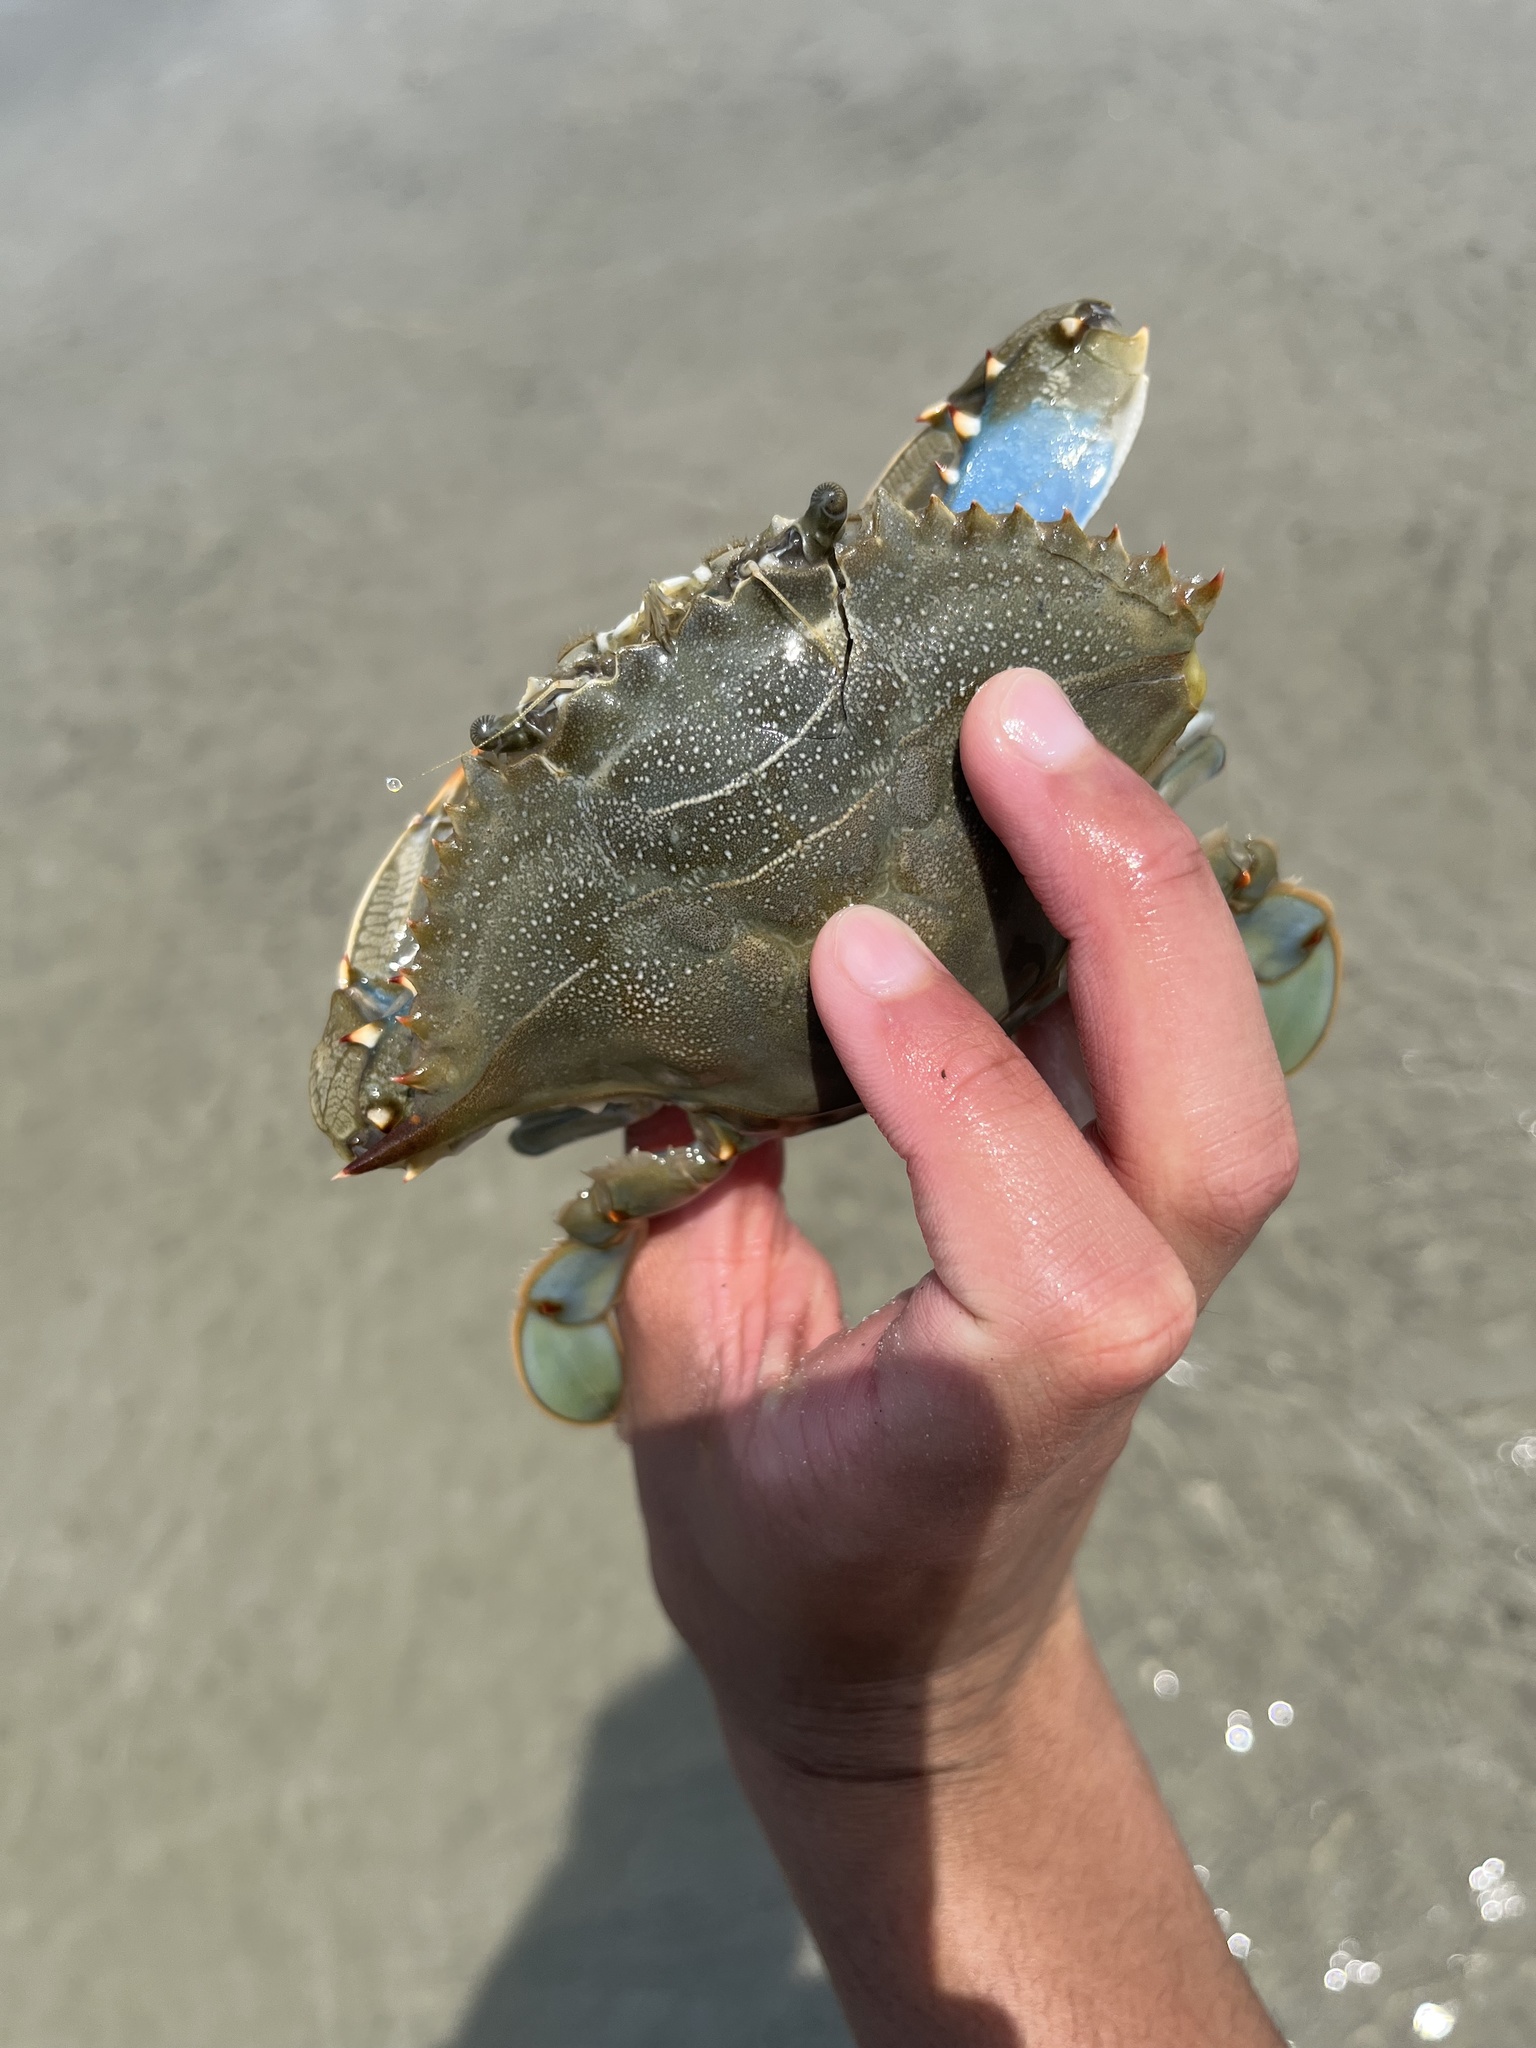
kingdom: Animalia
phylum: Arthropoda
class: Malacostraca
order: Decapoda
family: Portunidae
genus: Callinectes
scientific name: Callinectes sapidus
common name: Blue crab
